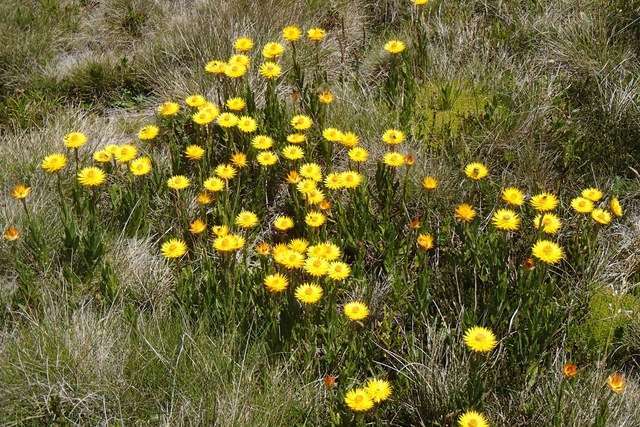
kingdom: Plantae
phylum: Tracheophyta
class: Magnoliopsida
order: Asterales
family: Asteraceae
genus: Xerochrysum
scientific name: Xerochrysum subundulatum
